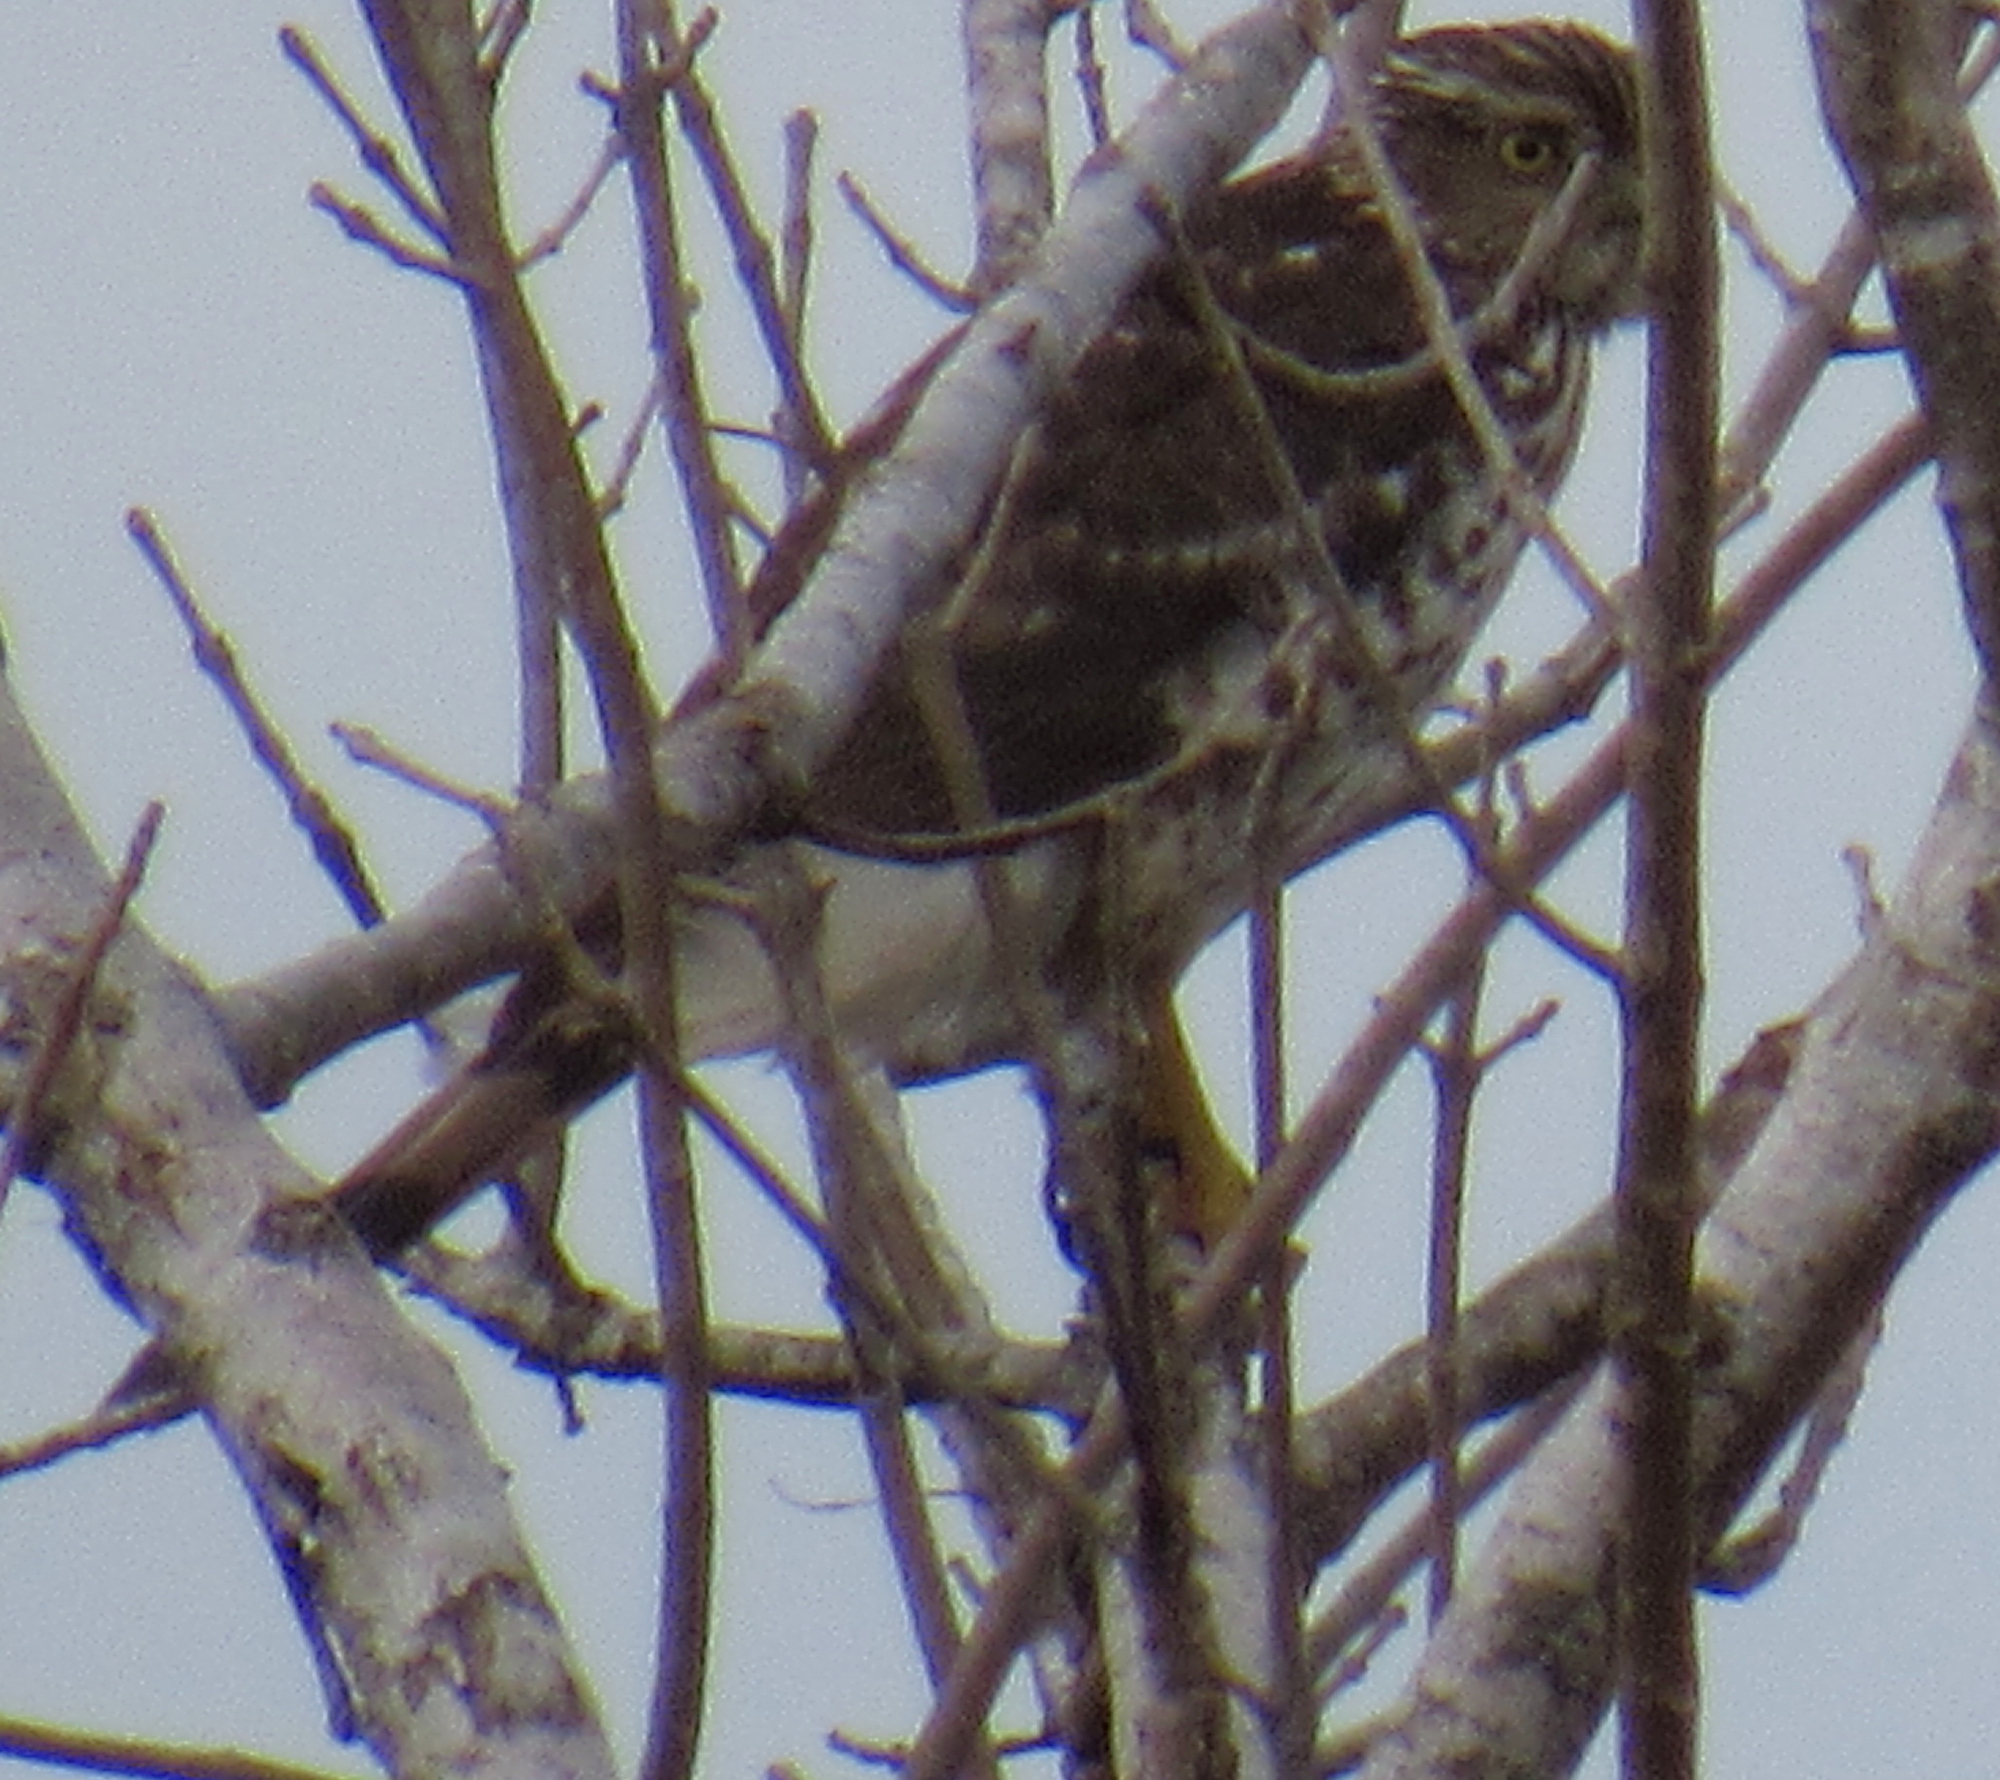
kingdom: Animalia
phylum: Chordata
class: Aves
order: Accipitriformes
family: Accipitridae
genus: Accipiter
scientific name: Accipiter cooperii
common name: Cooper's hawk
